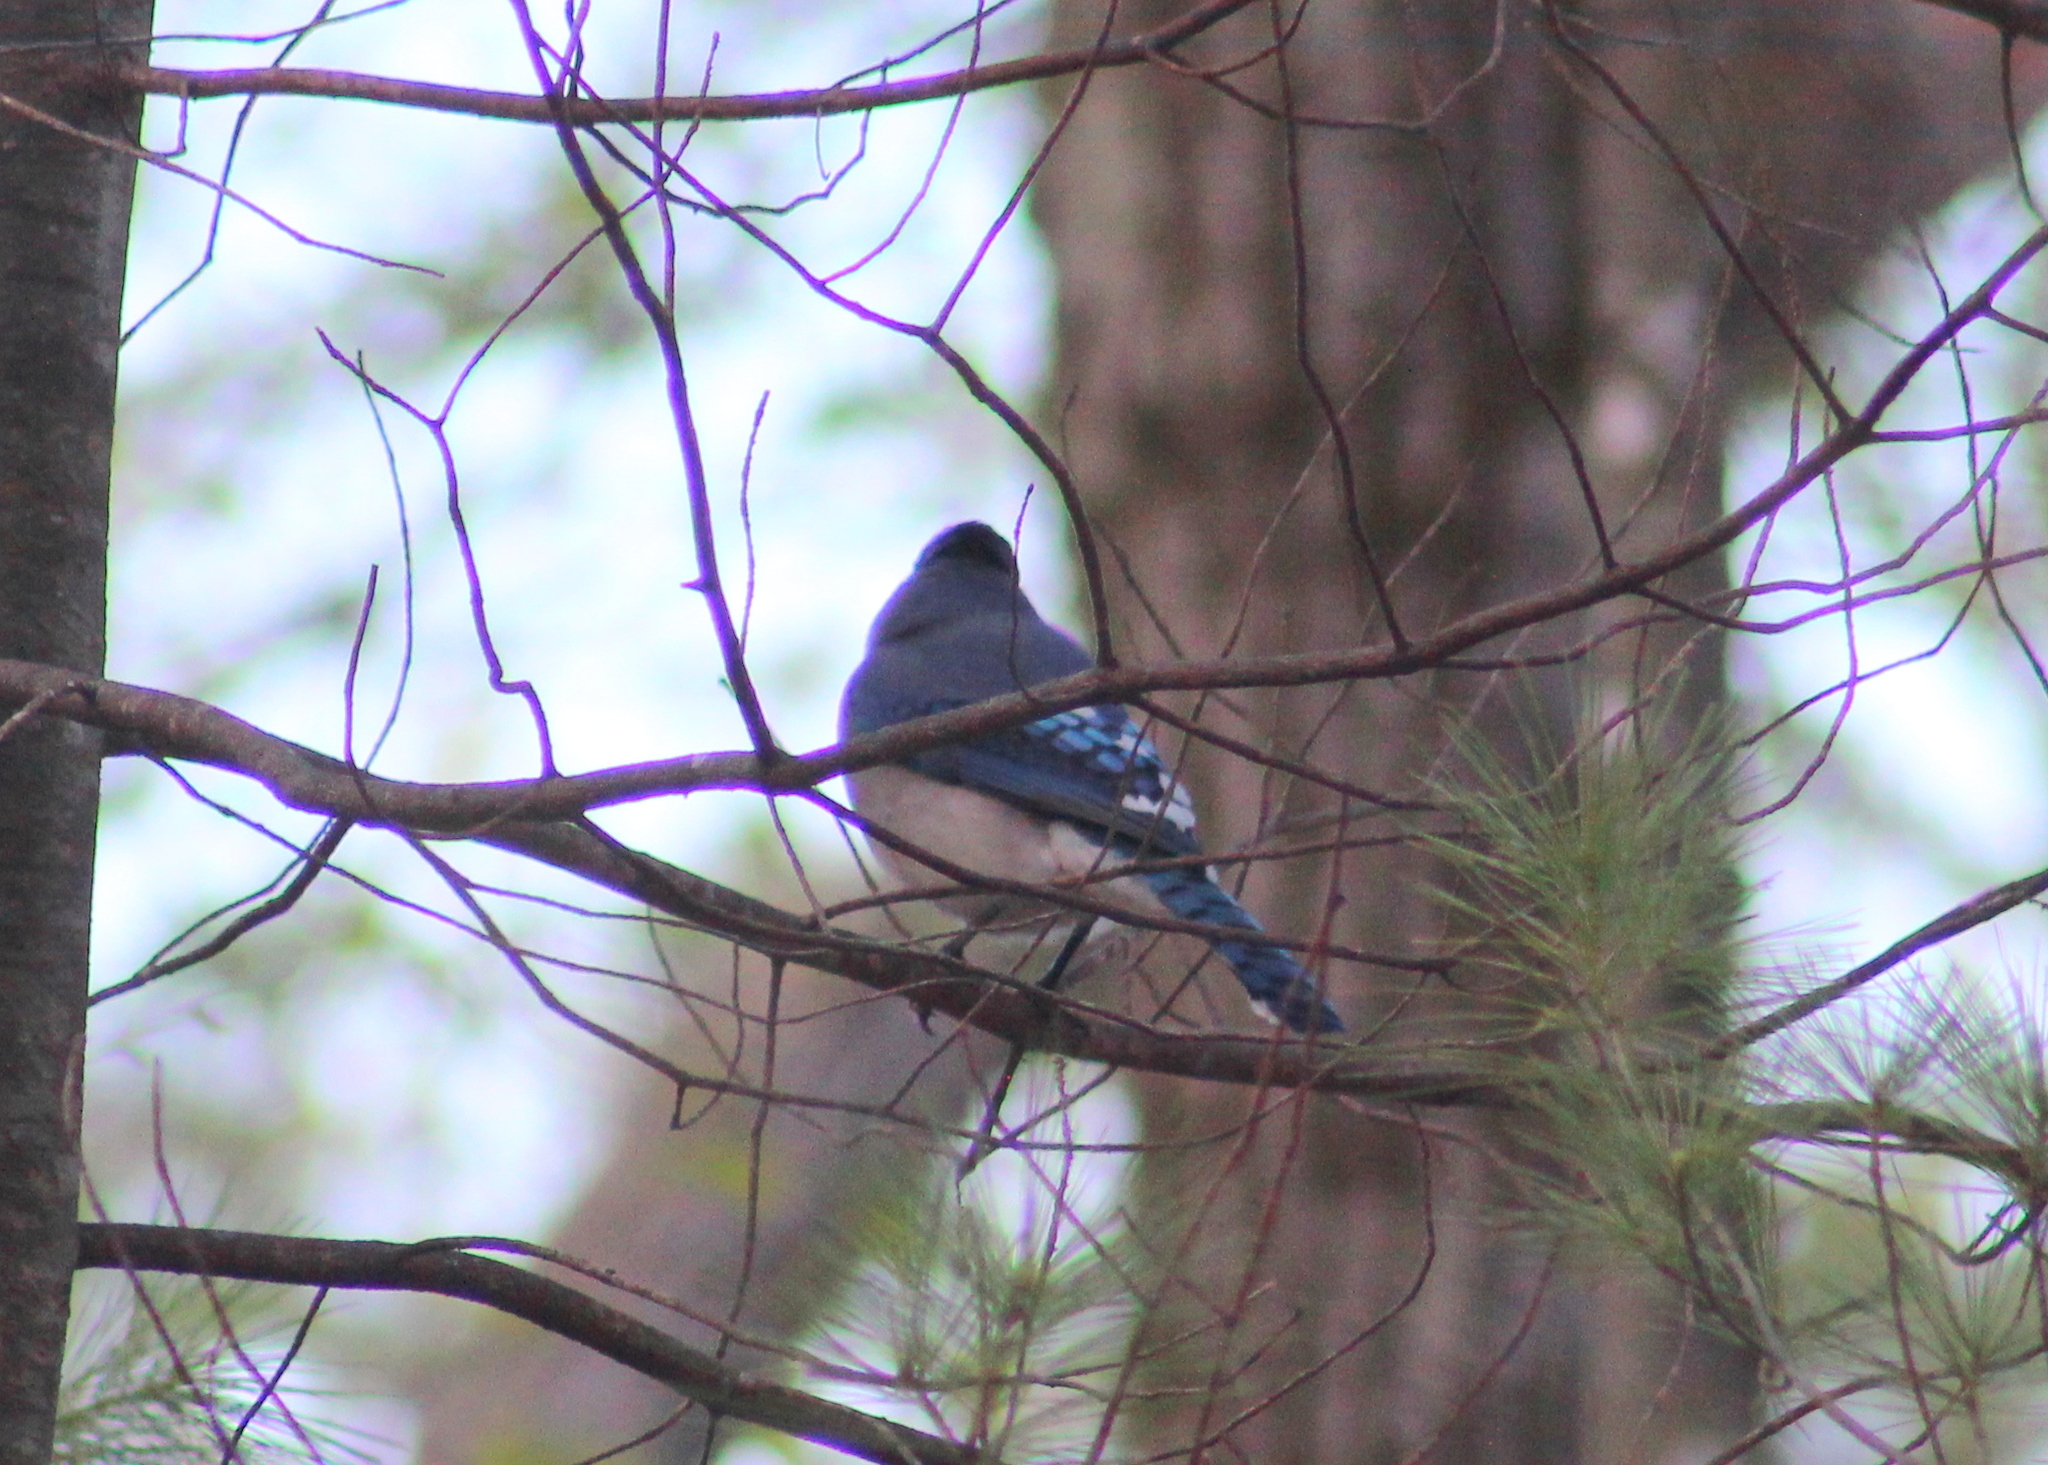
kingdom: Animalia
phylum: Chordata
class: Aves
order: Passeriformes
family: Corvidae
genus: Cyanocitta
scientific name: Cyanocitta cristata
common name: Blue jay
